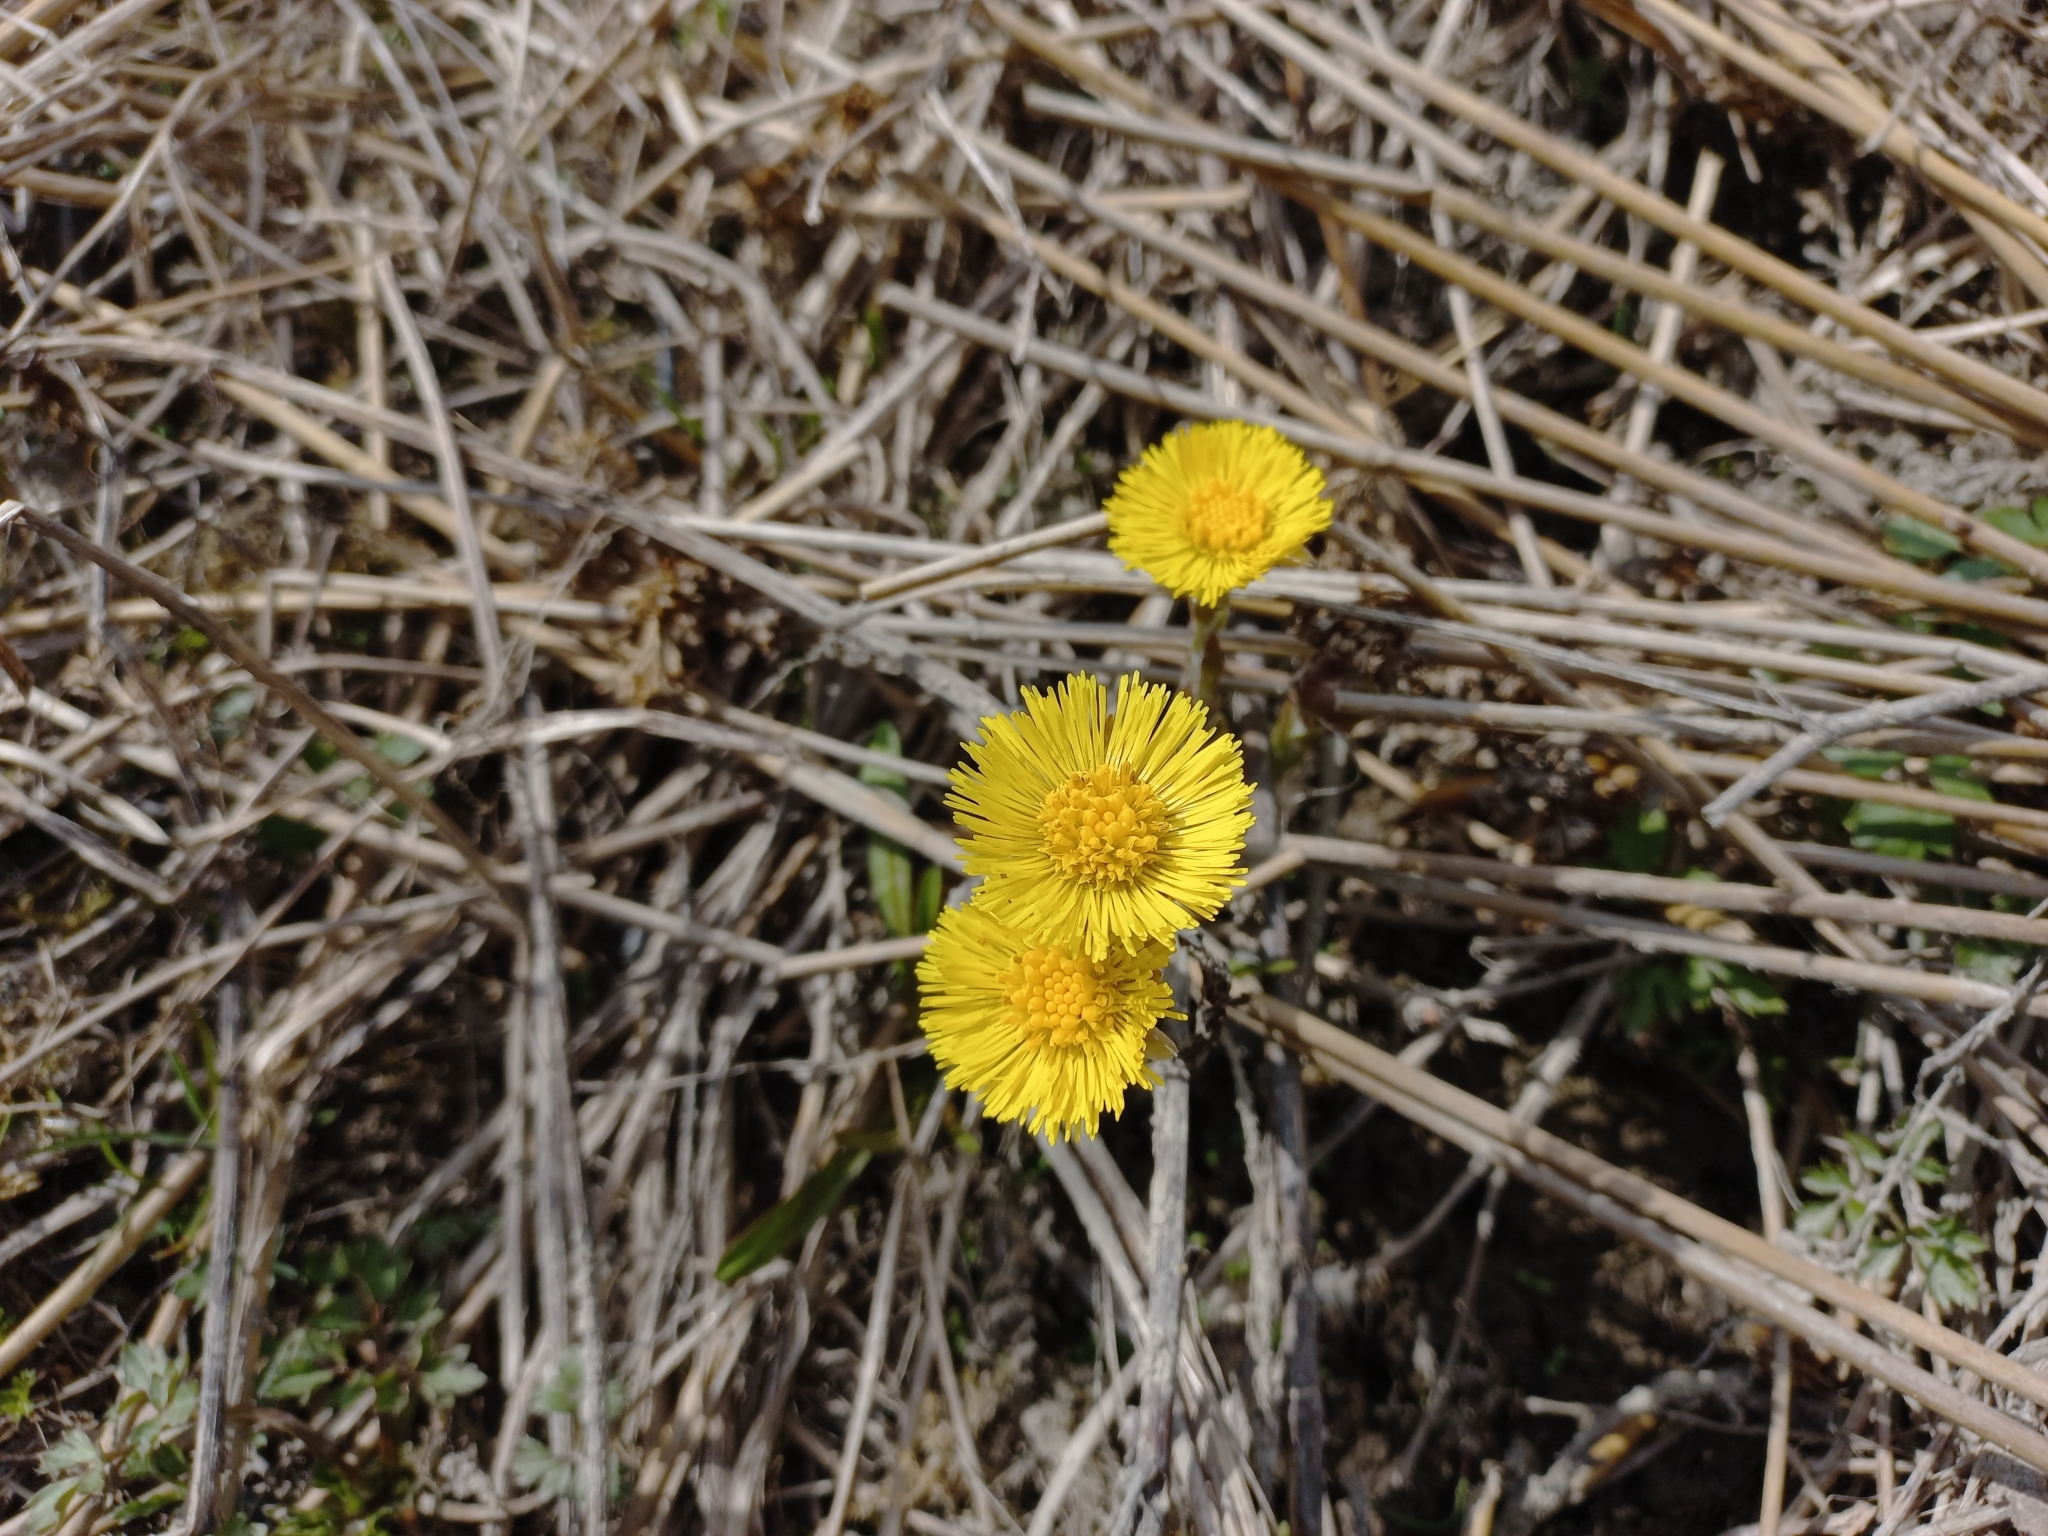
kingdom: Plantae
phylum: Tracheophyta
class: Magnoliopsida
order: Asterales
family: Asteraceae
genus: Tussilago
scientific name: Tussilago farfara
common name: Coltsfoot
